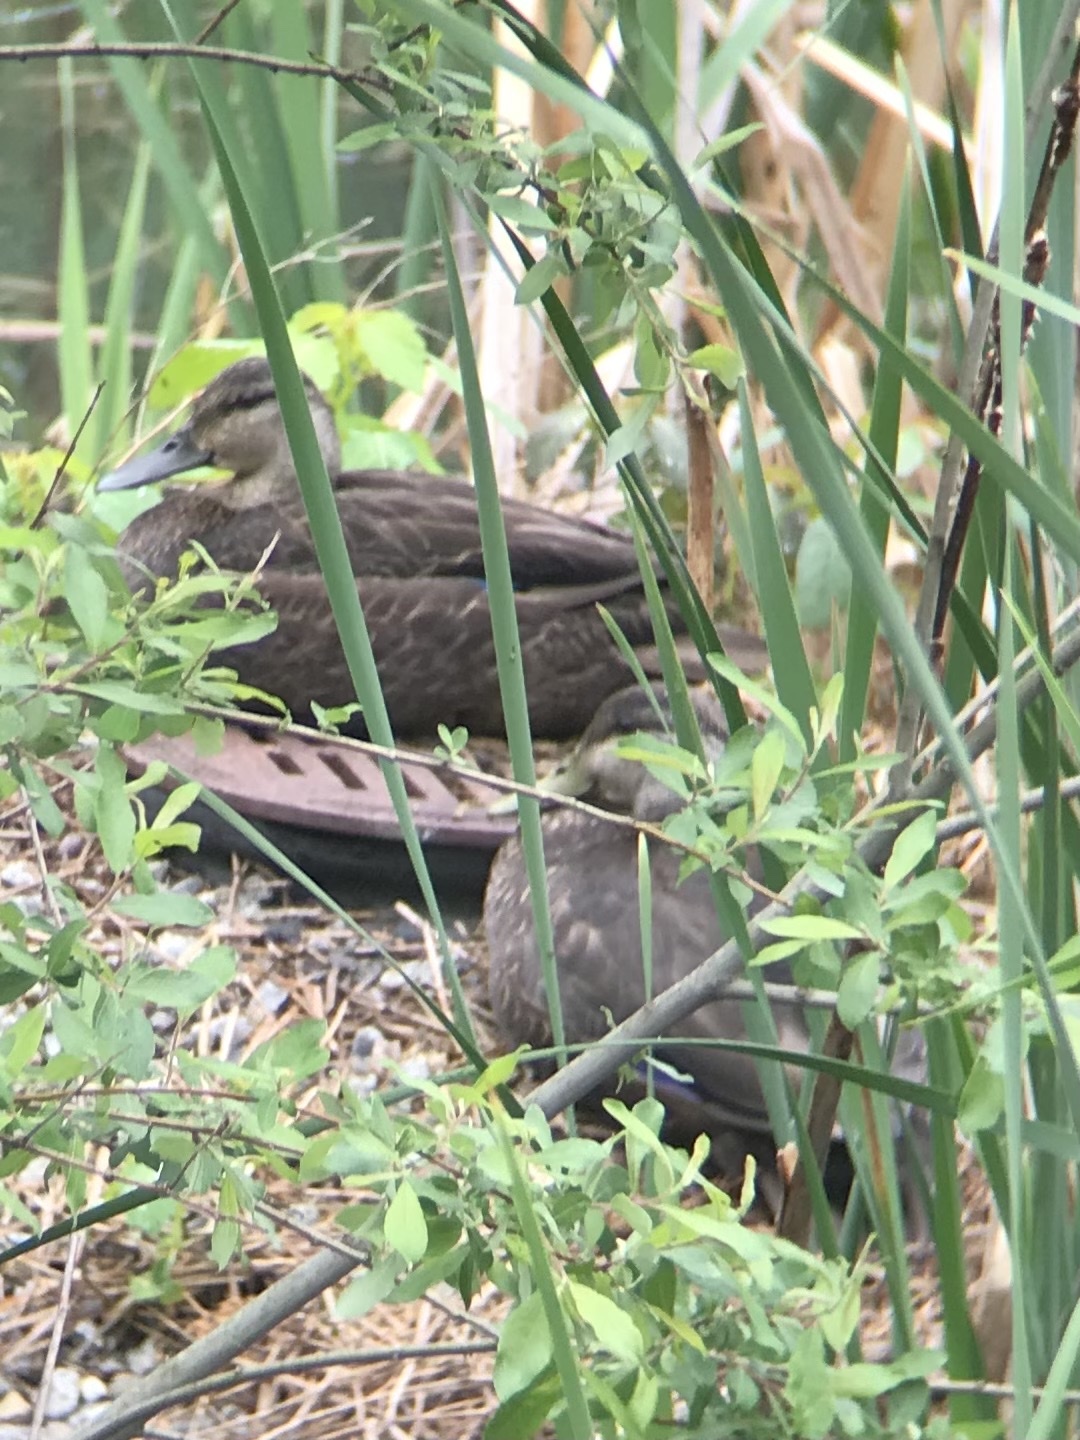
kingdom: Animalia
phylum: Chordata
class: Aves
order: Anseriformes
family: Anatidae
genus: Anas
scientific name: Anas rubripes
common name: American black duck
